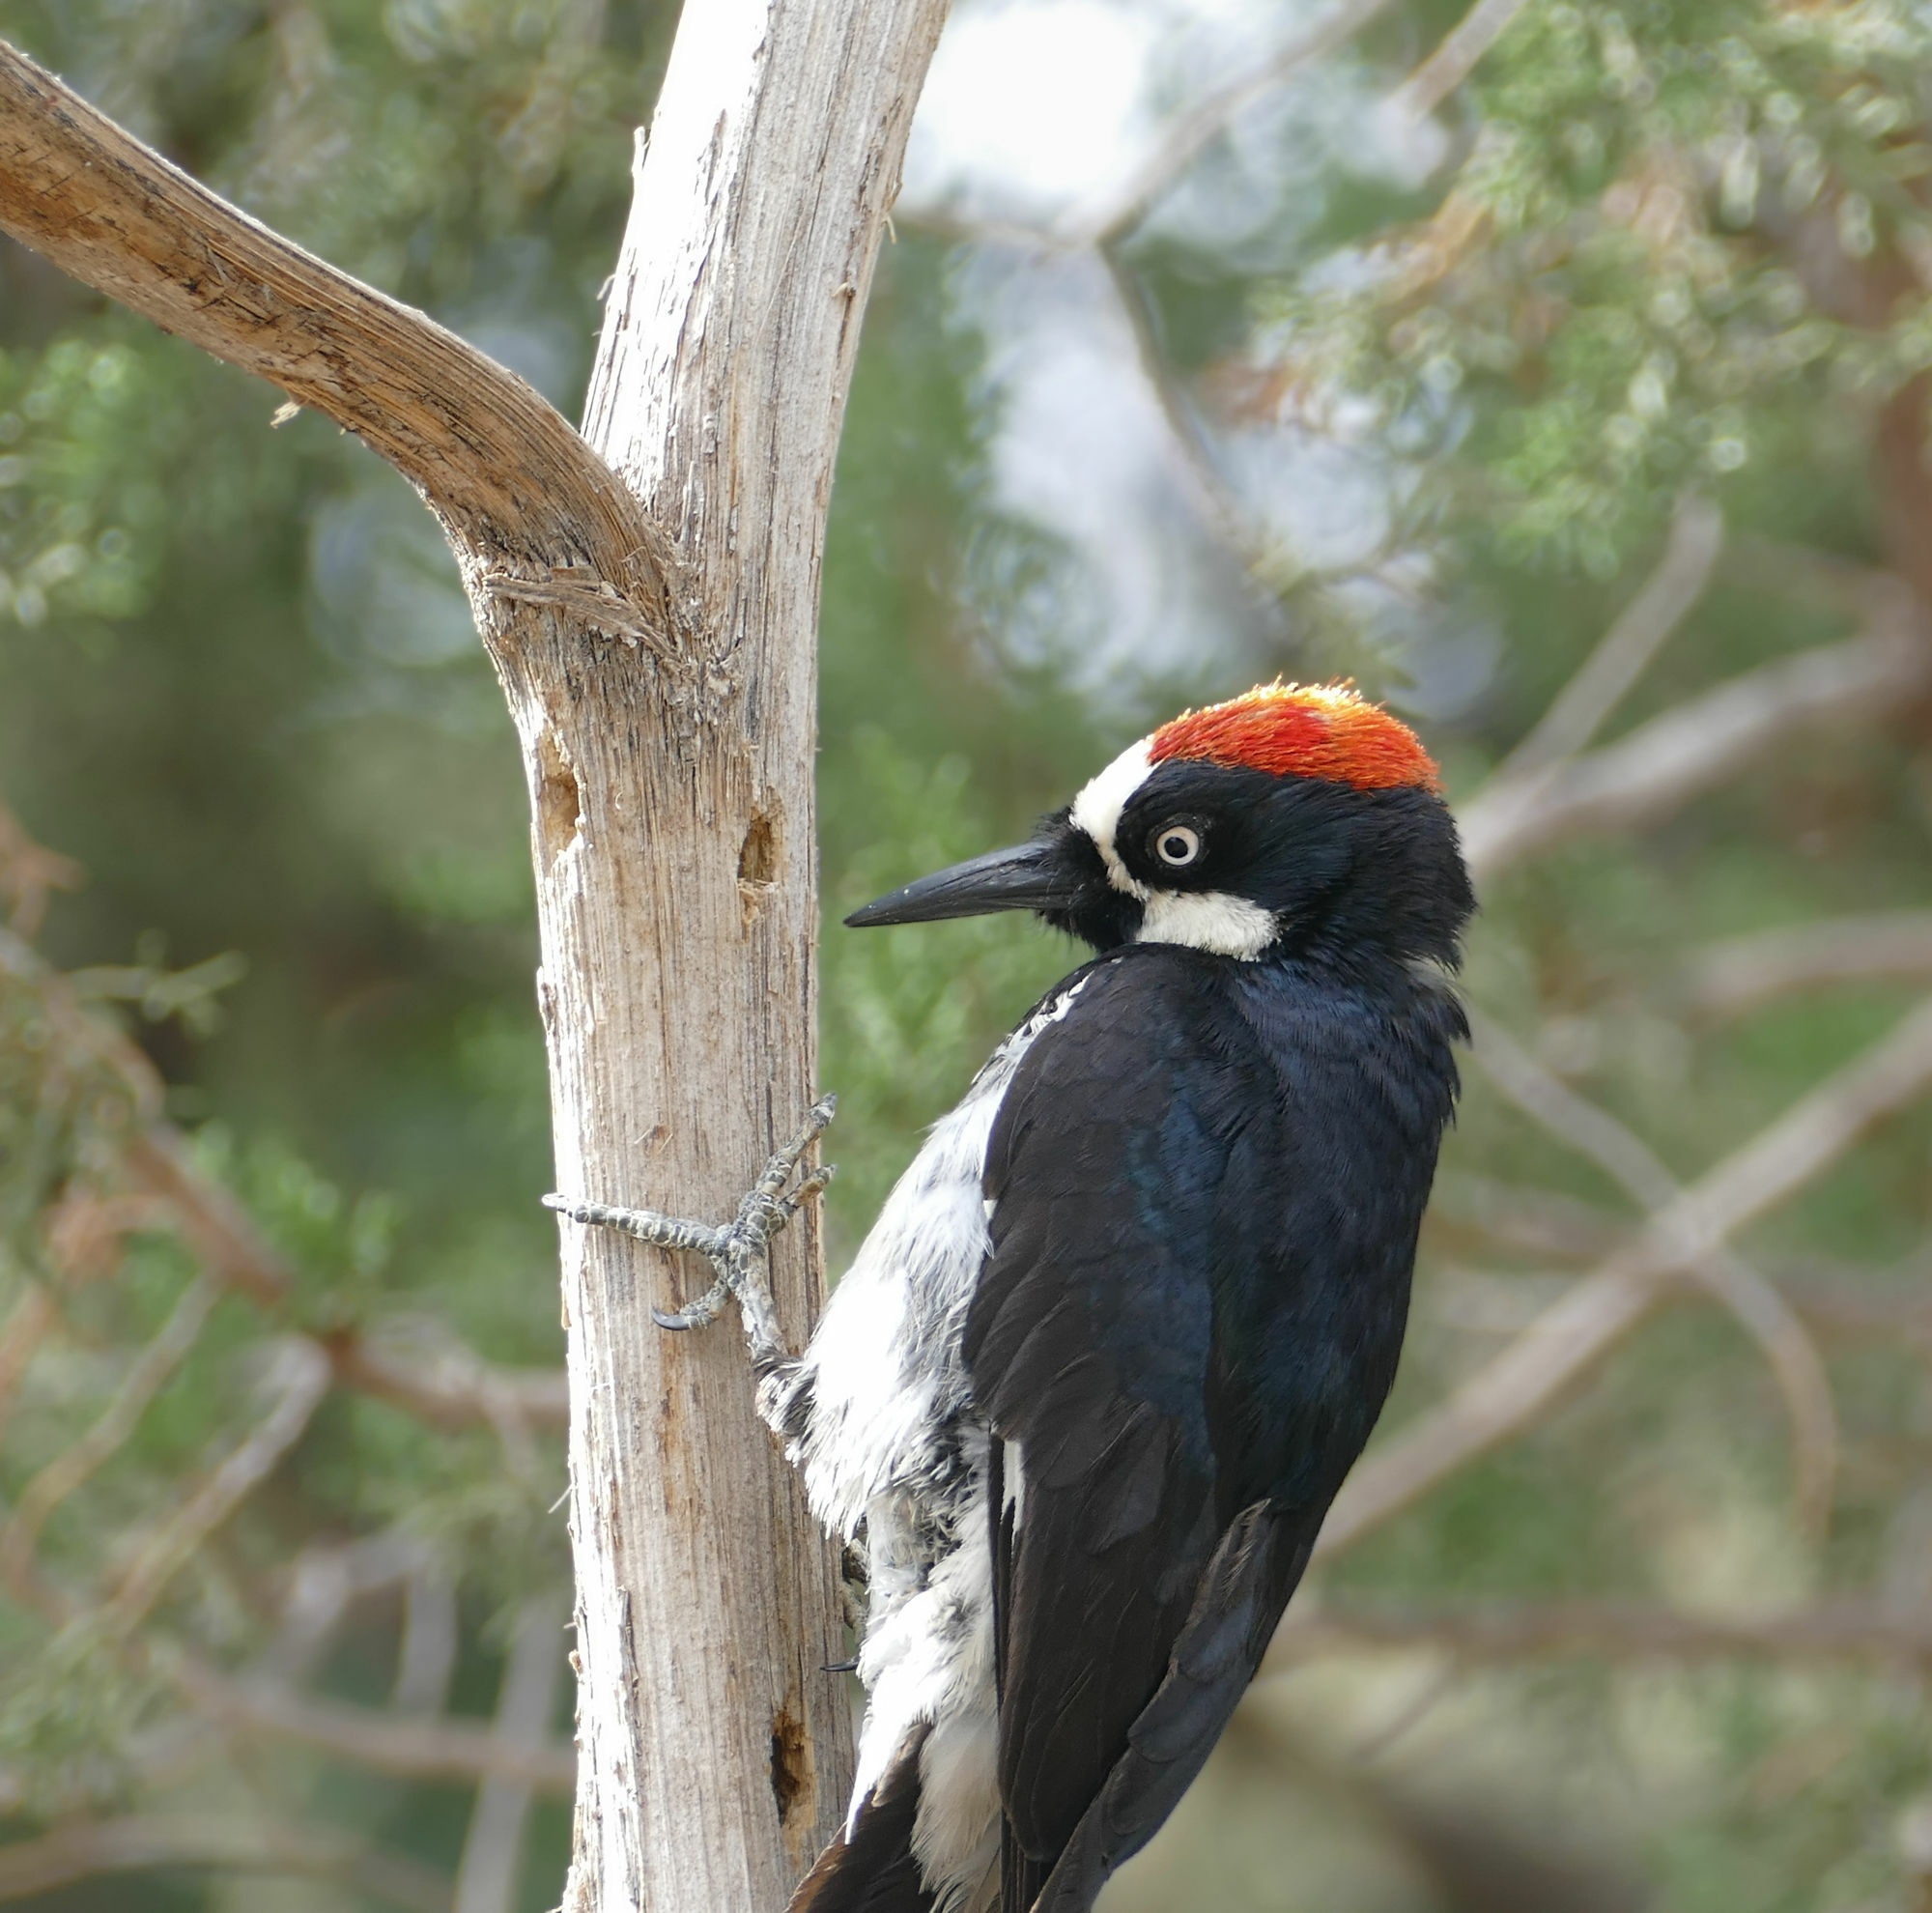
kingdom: Animalia
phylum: Chordata
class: Aves
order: Piciformes
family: Picidae
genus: Melanerpes
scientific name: Melanerpes formicivorus
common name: Acorn woodpecker
